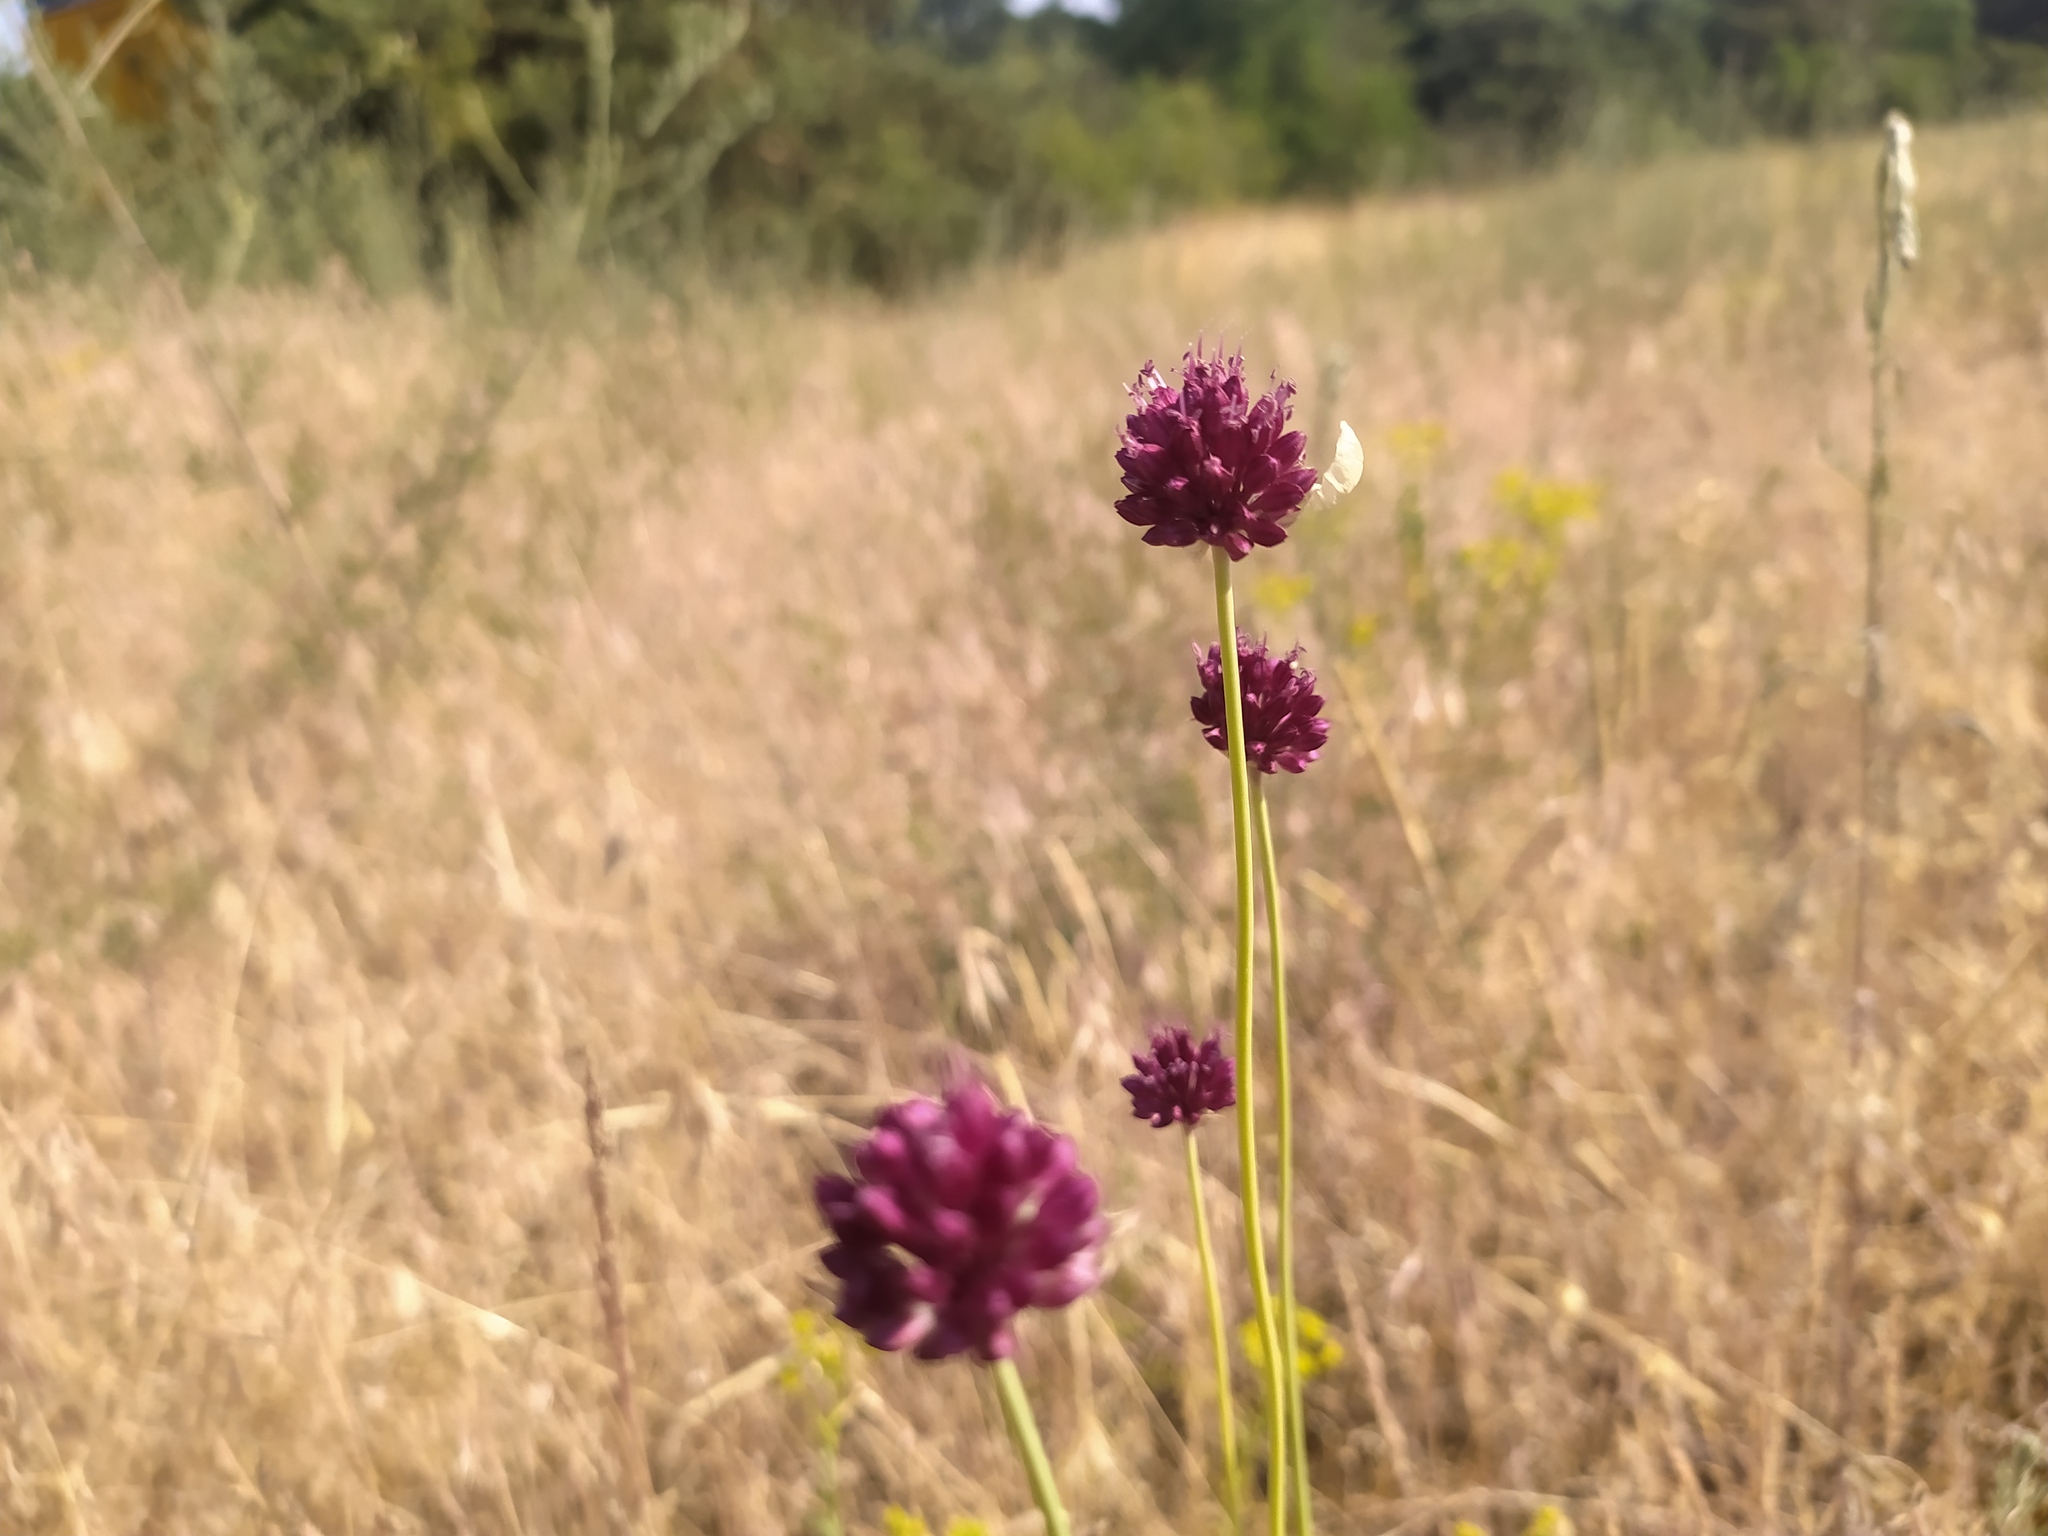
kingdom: Plantae
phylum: Tracheophyta
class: Liliopsida
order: Asparagales
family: Amaryllidaceae
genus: Allium
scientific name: Allium sphaerocephalon
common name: Round-headed leek
